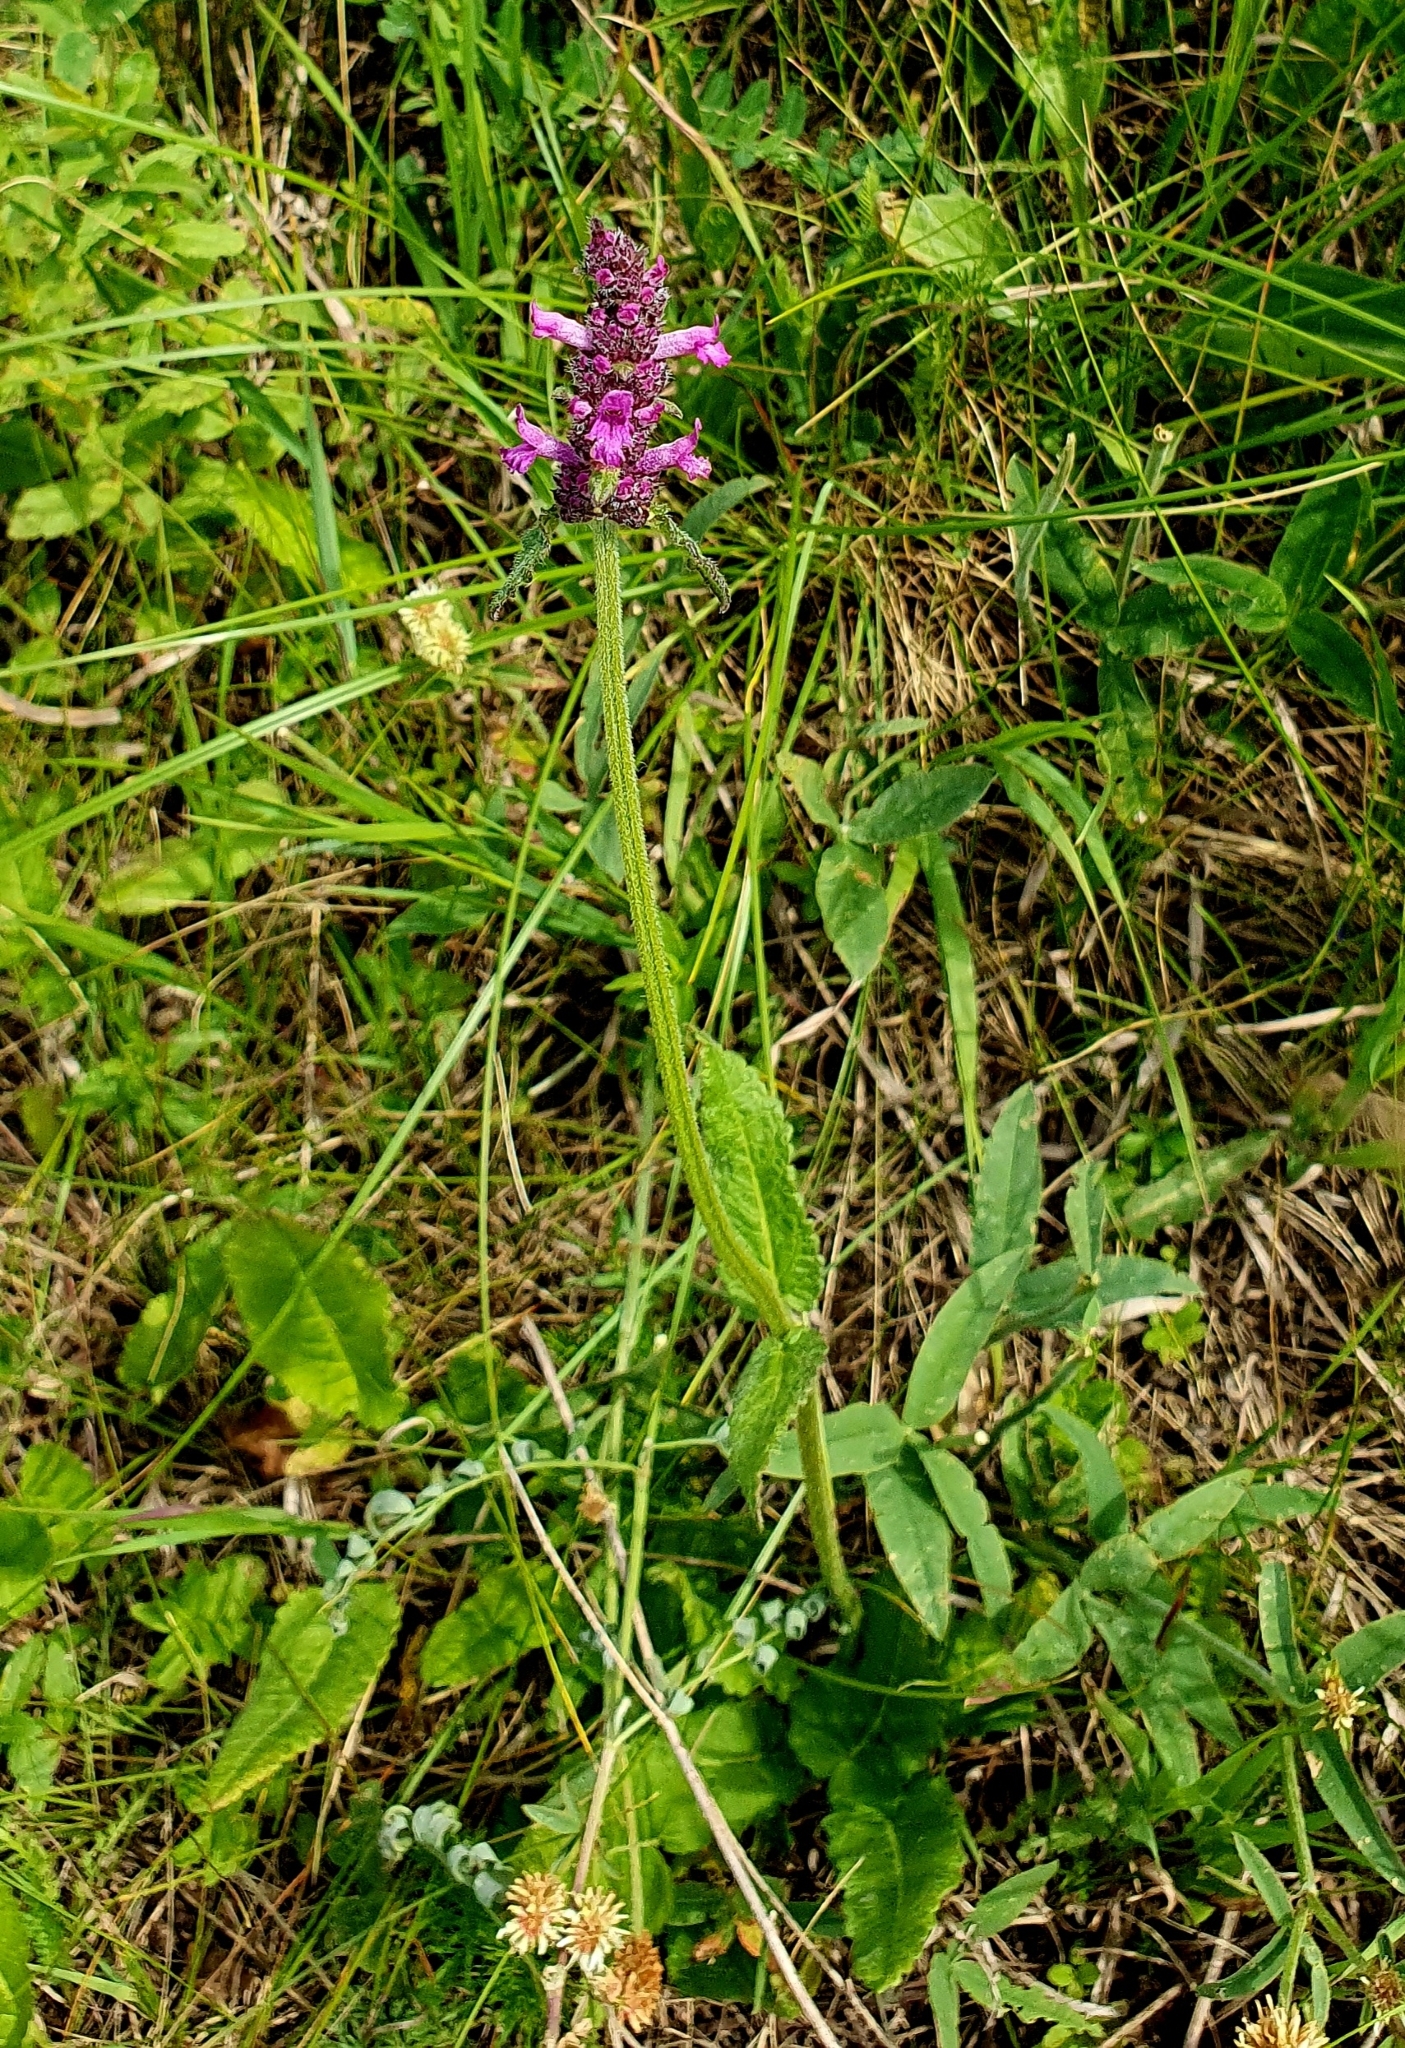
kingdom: Plantae
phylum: Tracheophyta
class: Magnoliopsida
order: Lamiales
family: Lamiaceae
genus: Betonica
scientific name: Betonica officinalis
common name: Bishop's-wort
